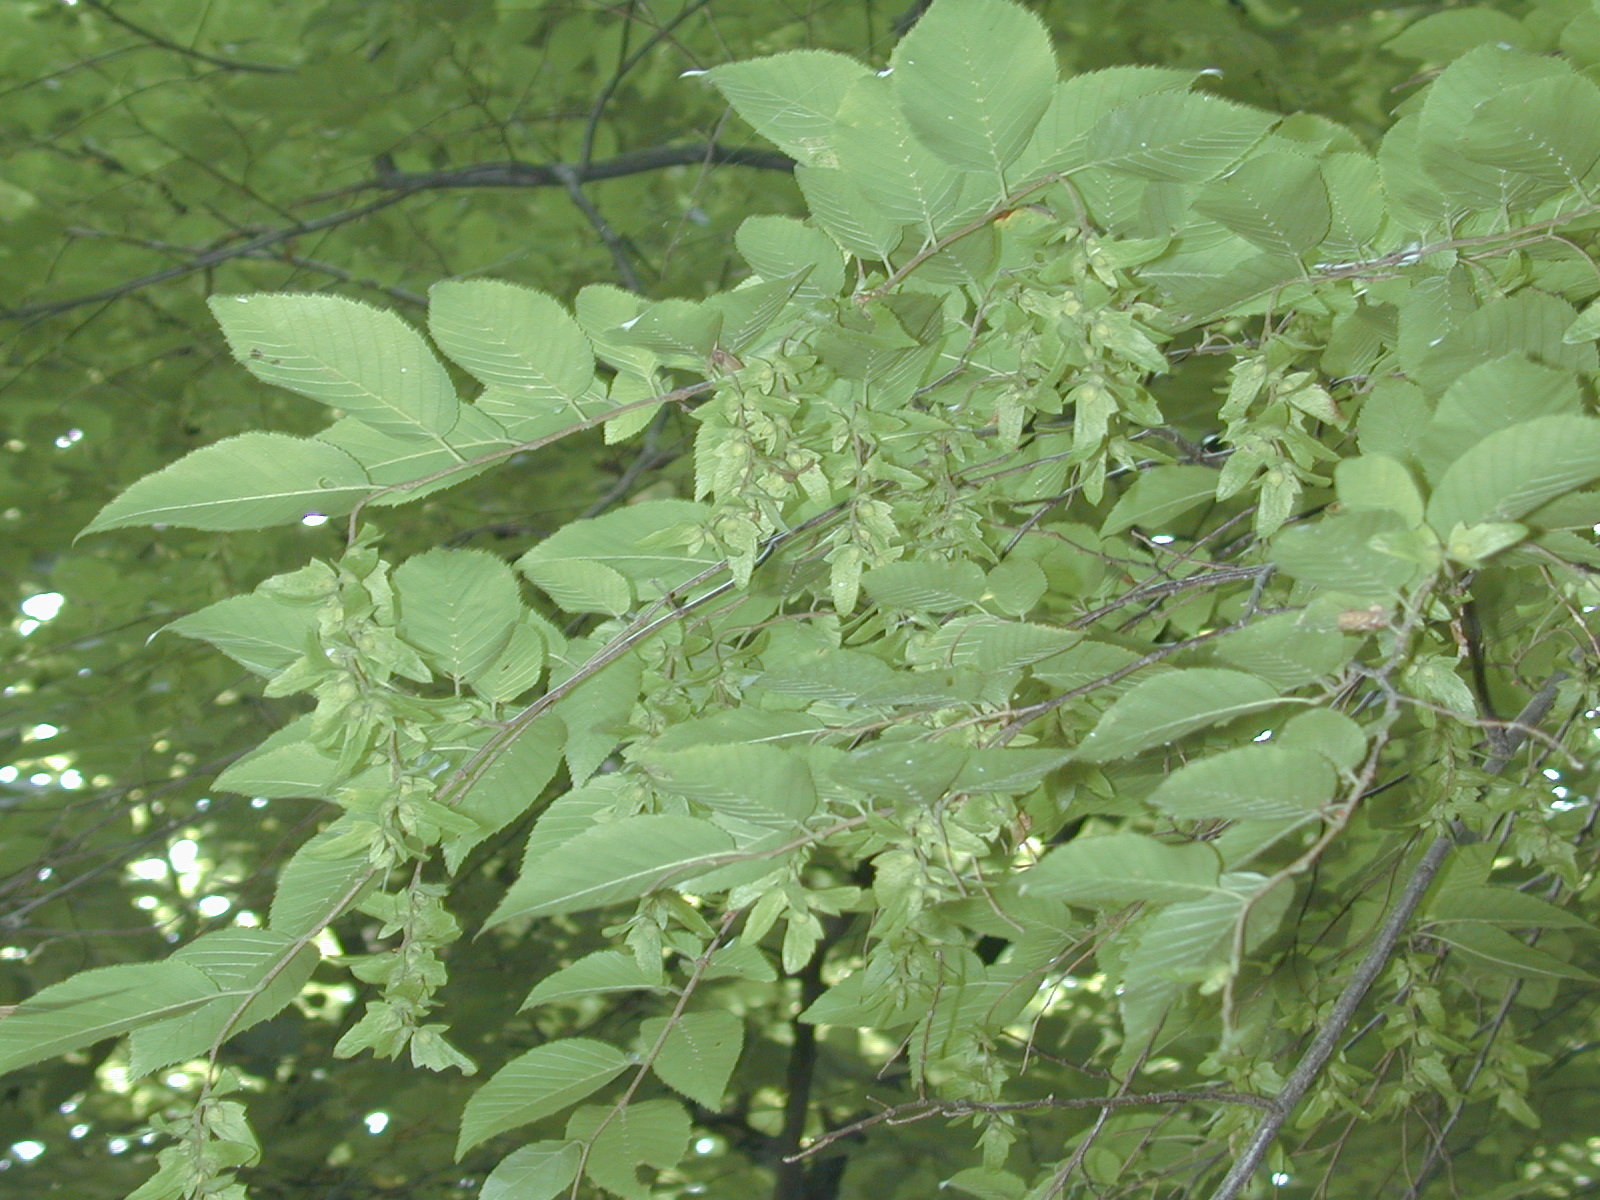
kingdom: Plantae
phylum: Tracheophyta
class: Magnoliopsida
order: Fagales
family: Betulaceae
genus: Carpinus
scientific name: Carpinus caroliniana
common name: American hornbeam
